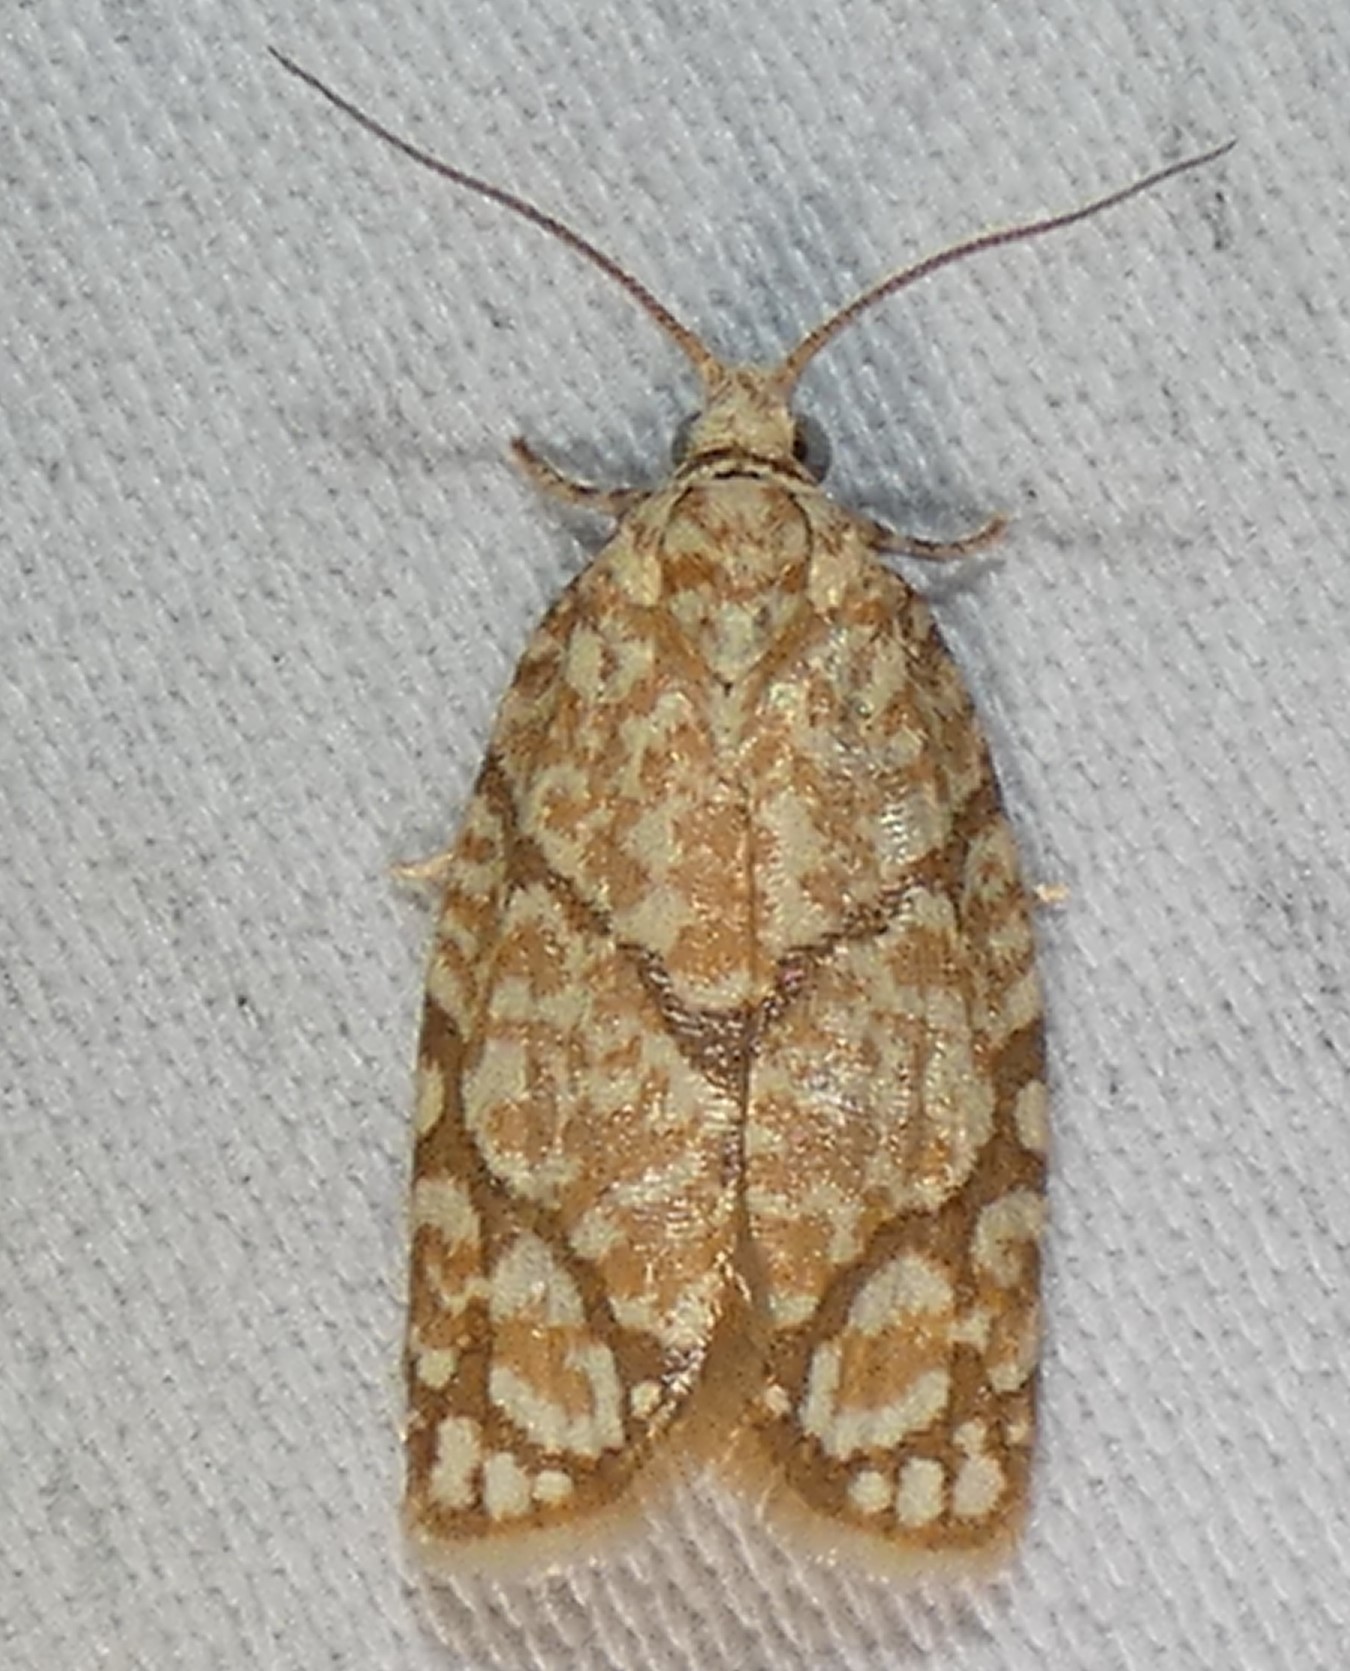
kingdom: Animalia
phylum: Arthropoda
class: Insecta
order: Lepidoptera
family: Tortricidae
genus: Argyrotaenia
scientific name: Argyrotaenia quercifoliana
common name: Yellow-winged oak leafroller moth
